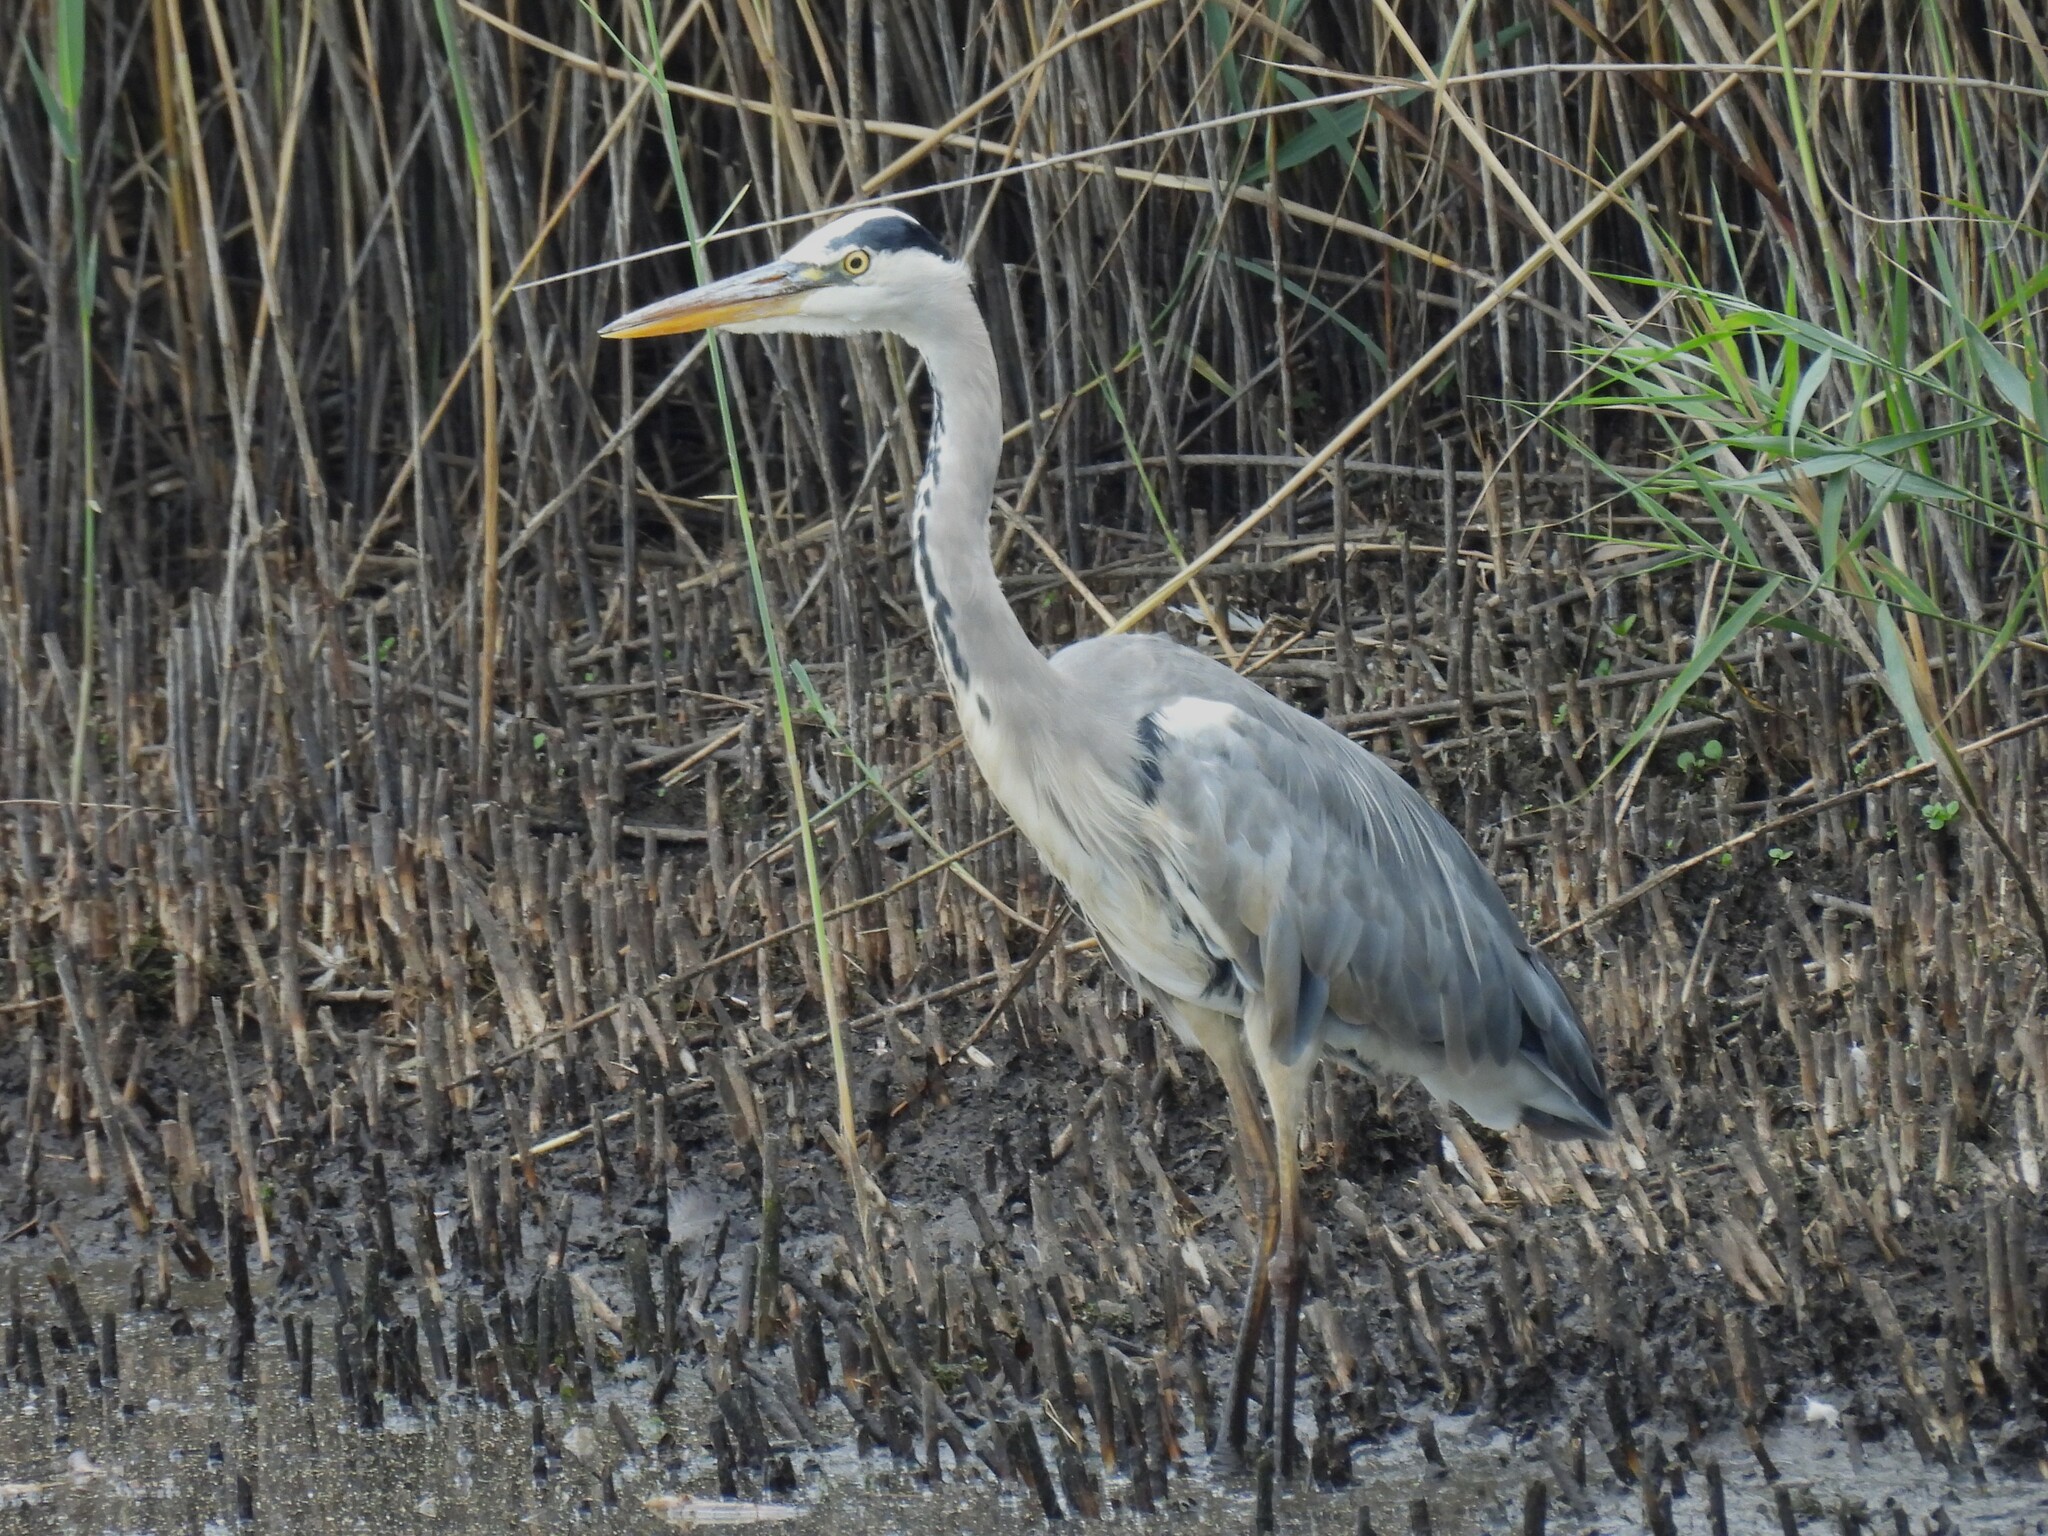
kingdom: Animalia
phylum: Chordata
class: Aves
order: Pelecaniformes
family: Ardeidae
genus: Ardea
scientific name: Ardea cinerea
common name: Grey heron
